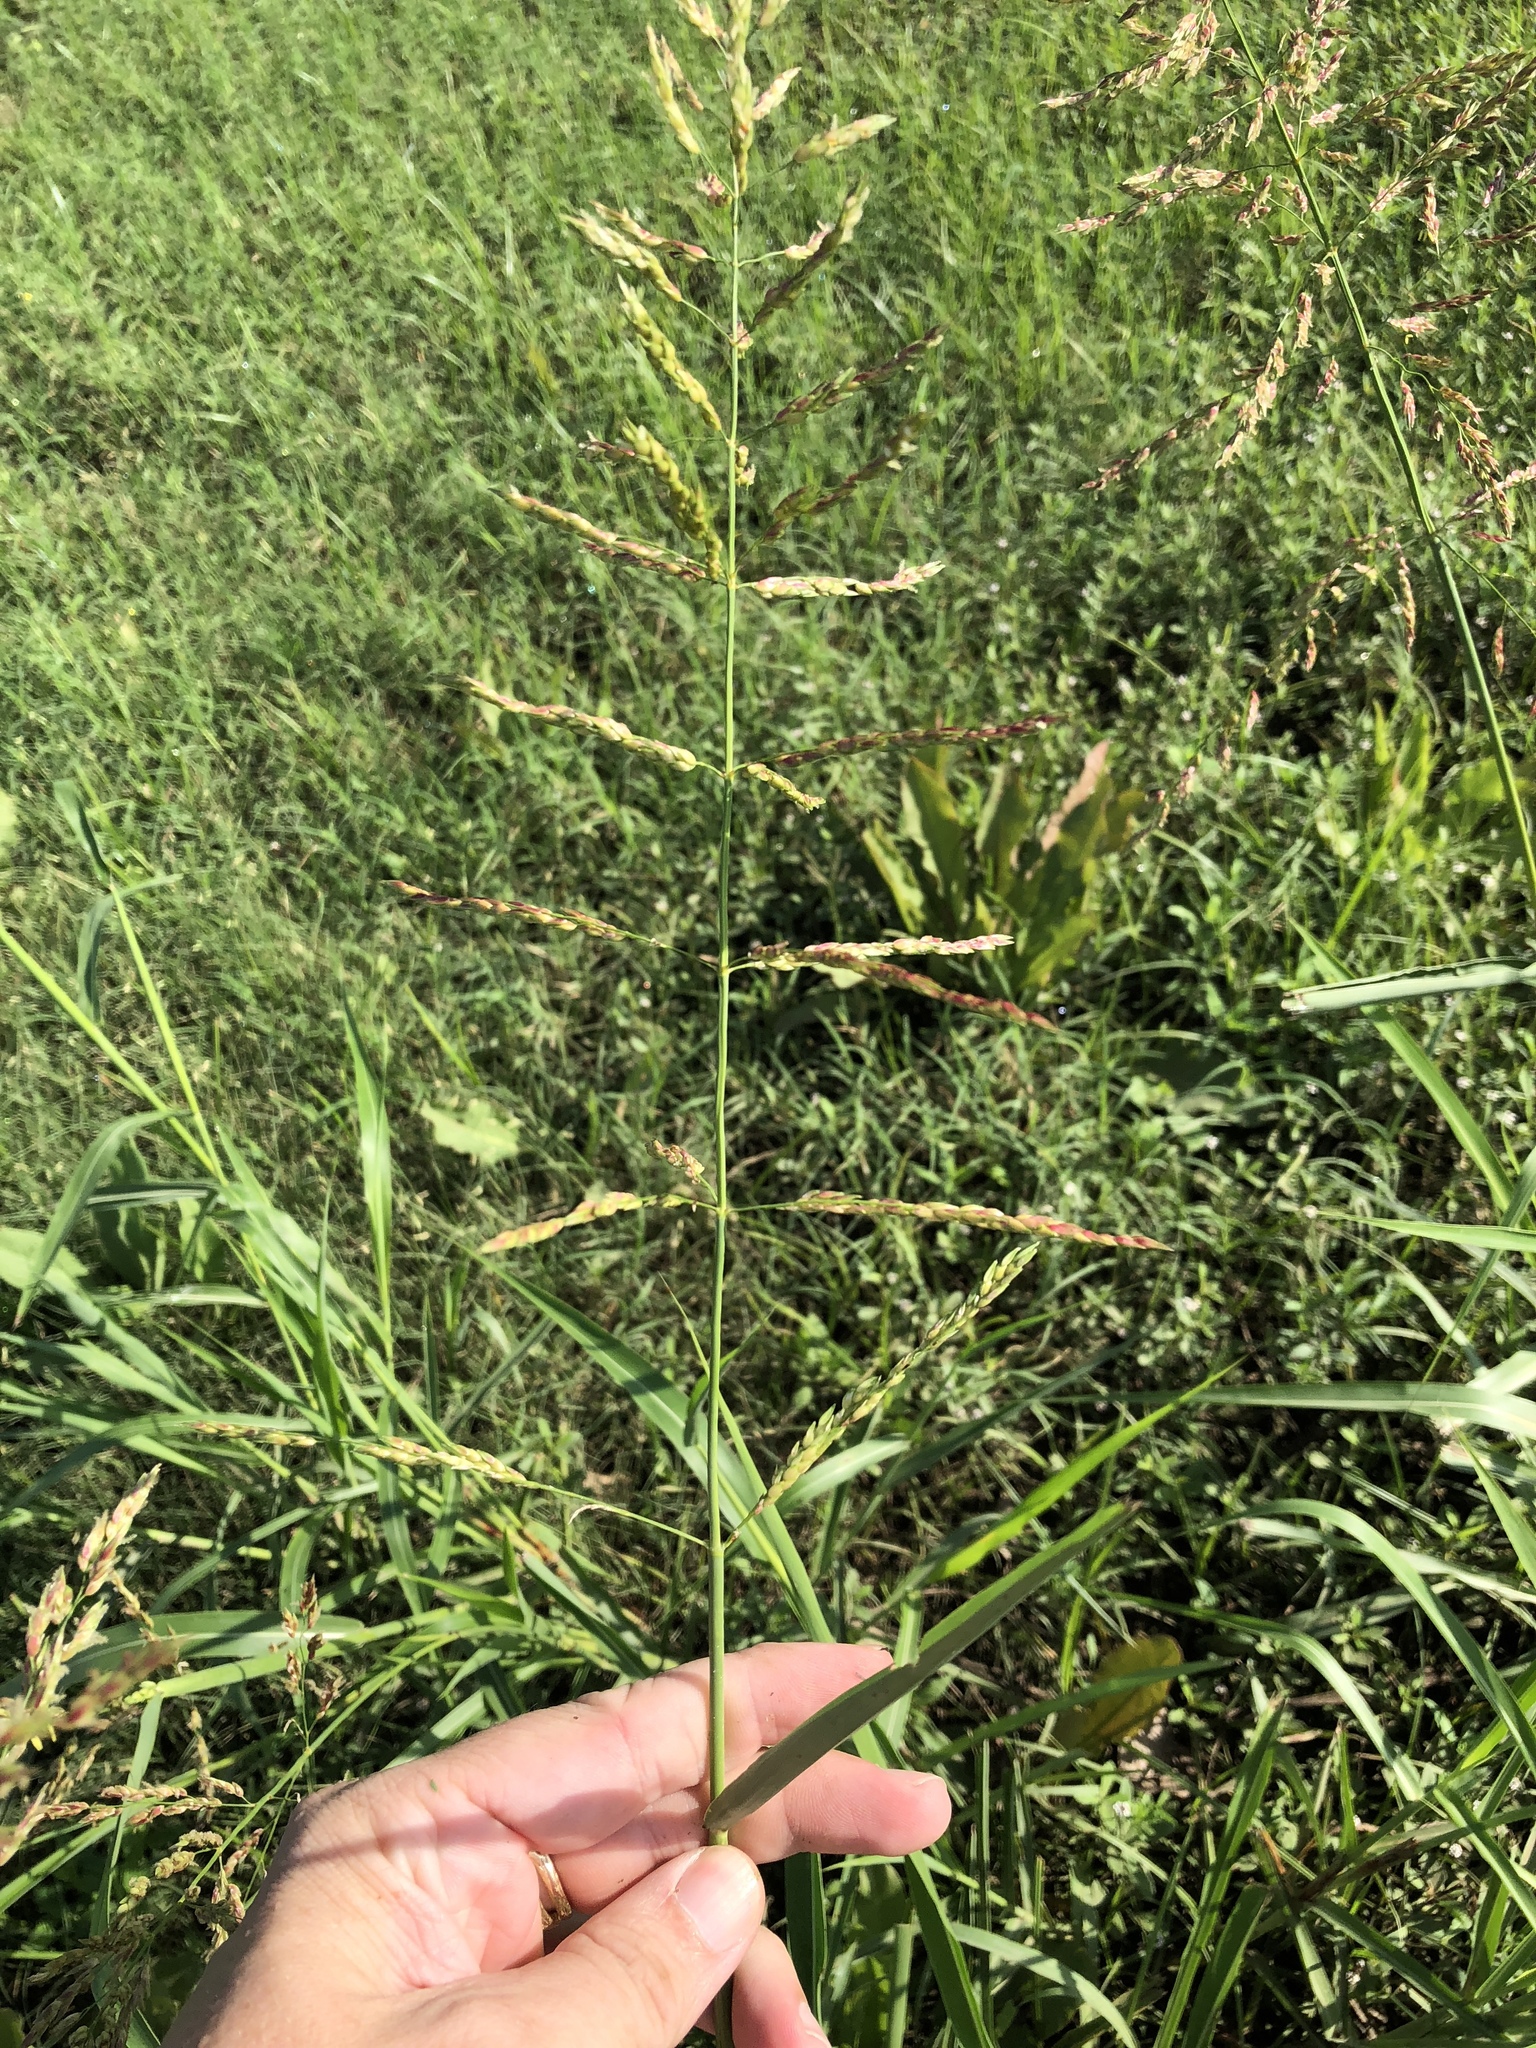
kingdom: Plantae
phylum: Tracheophyta
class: Liliopsida
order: Poales
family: Poaceae
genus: Sorghum
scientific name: Sorghum halepense
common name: Johnson-grass
